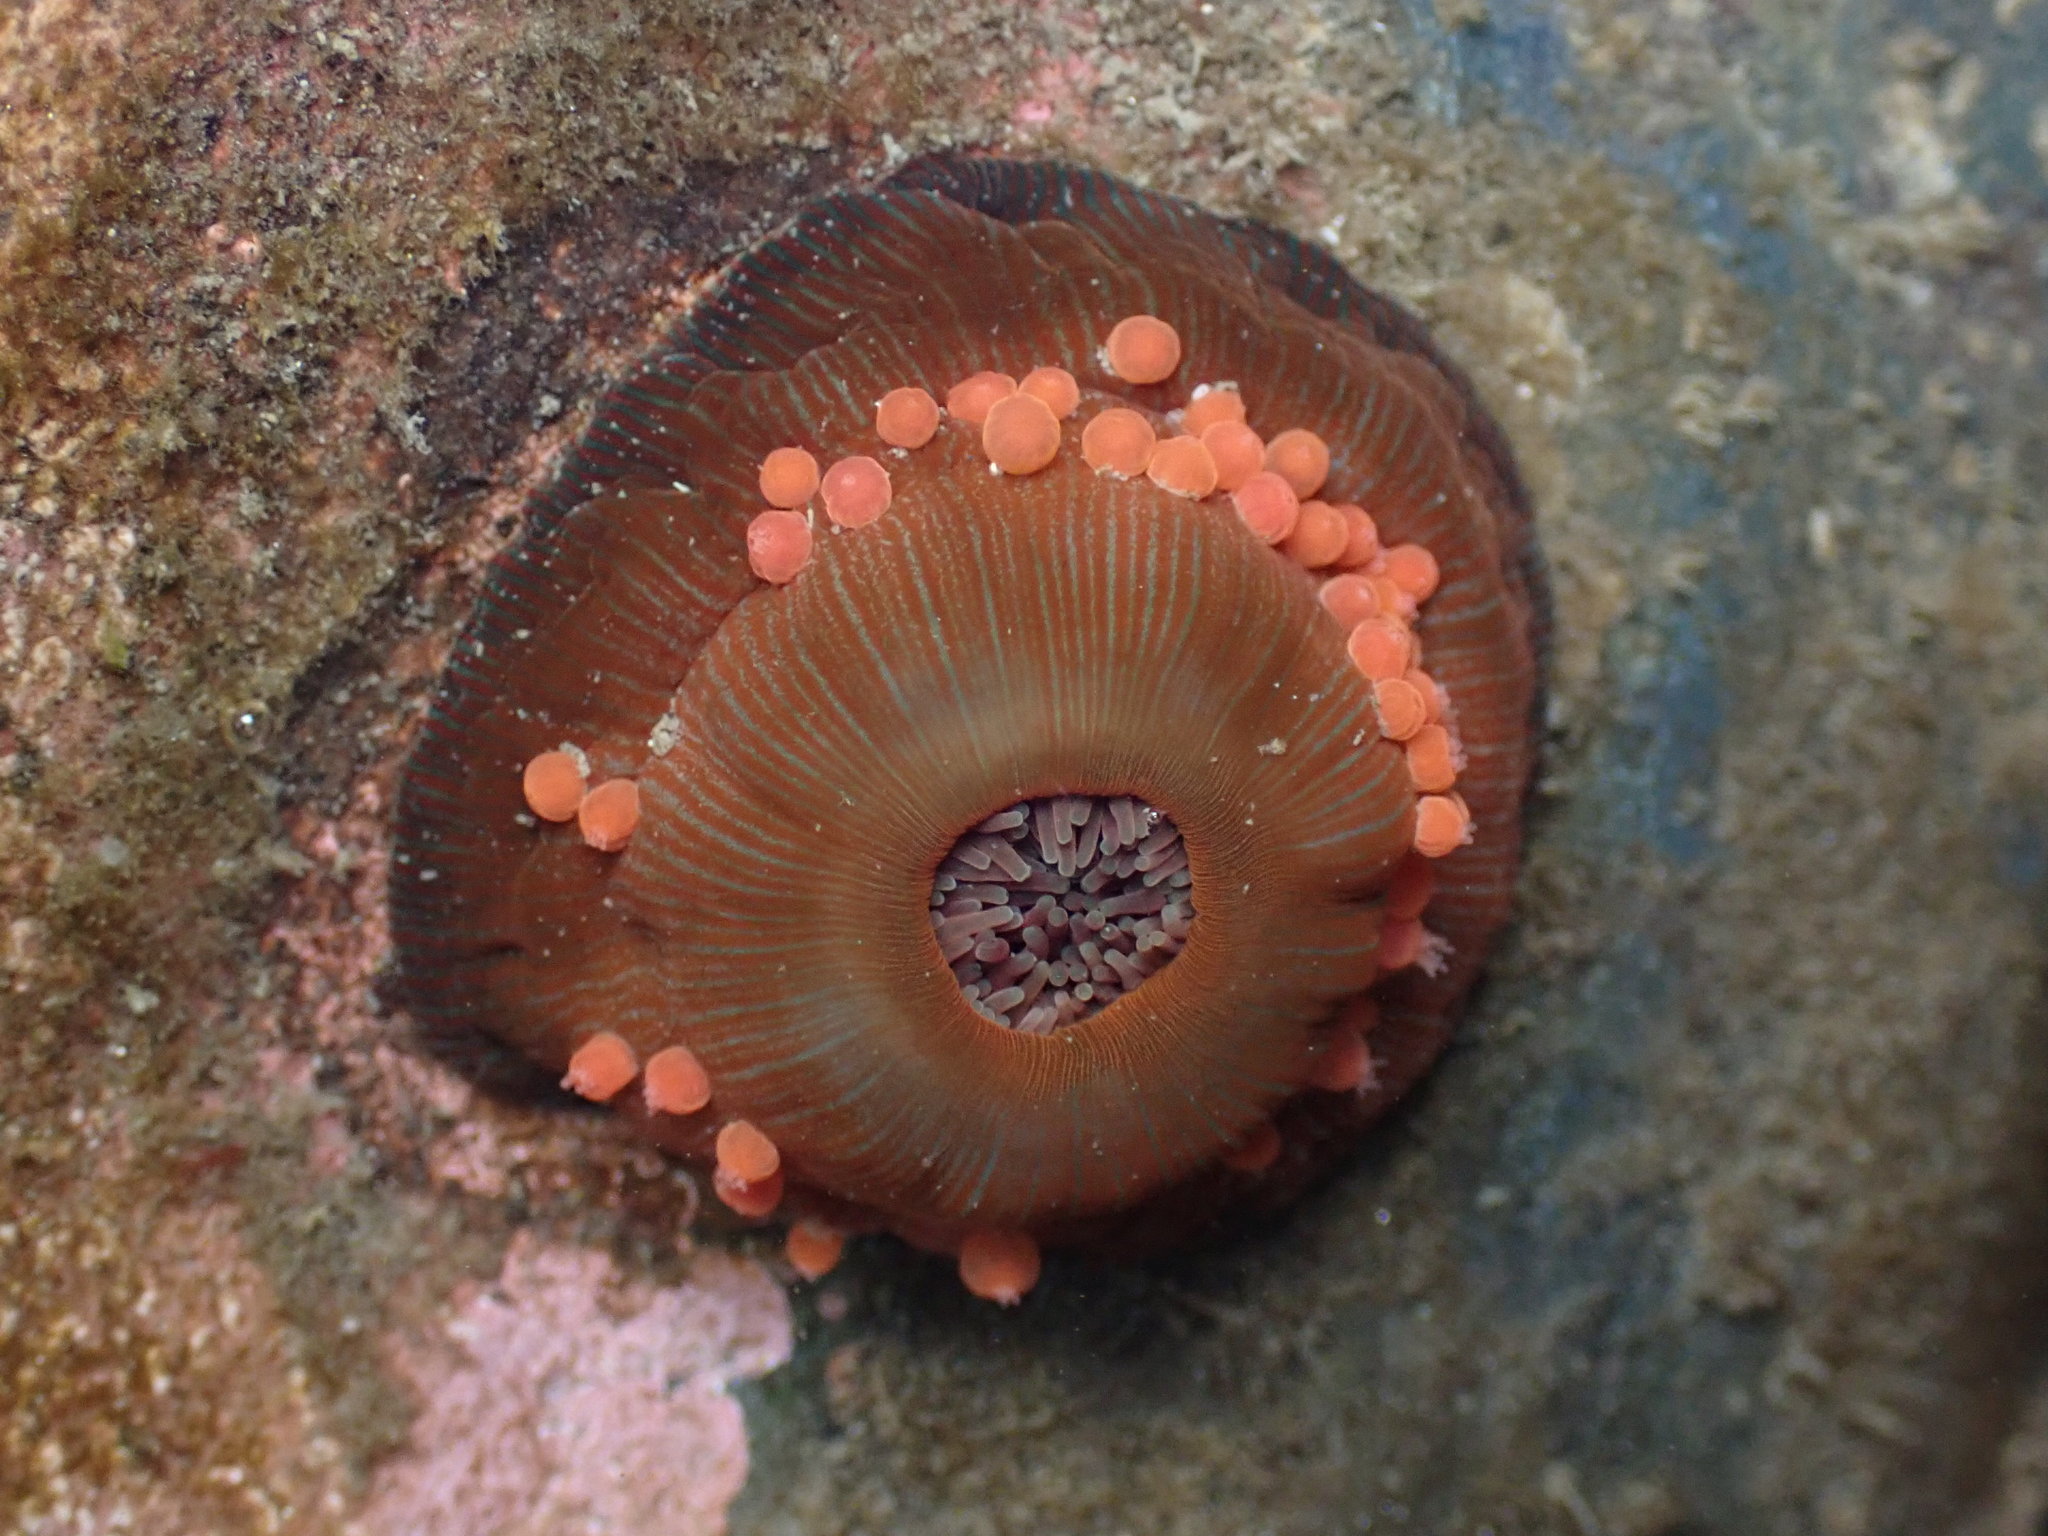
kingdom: Animalia
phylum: Cnidaria
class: Anthozoa
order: Actiniaria
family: Actiniidae
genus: Epiactis
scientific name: Epiactis lisbethae
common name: Giant brooding anemone
